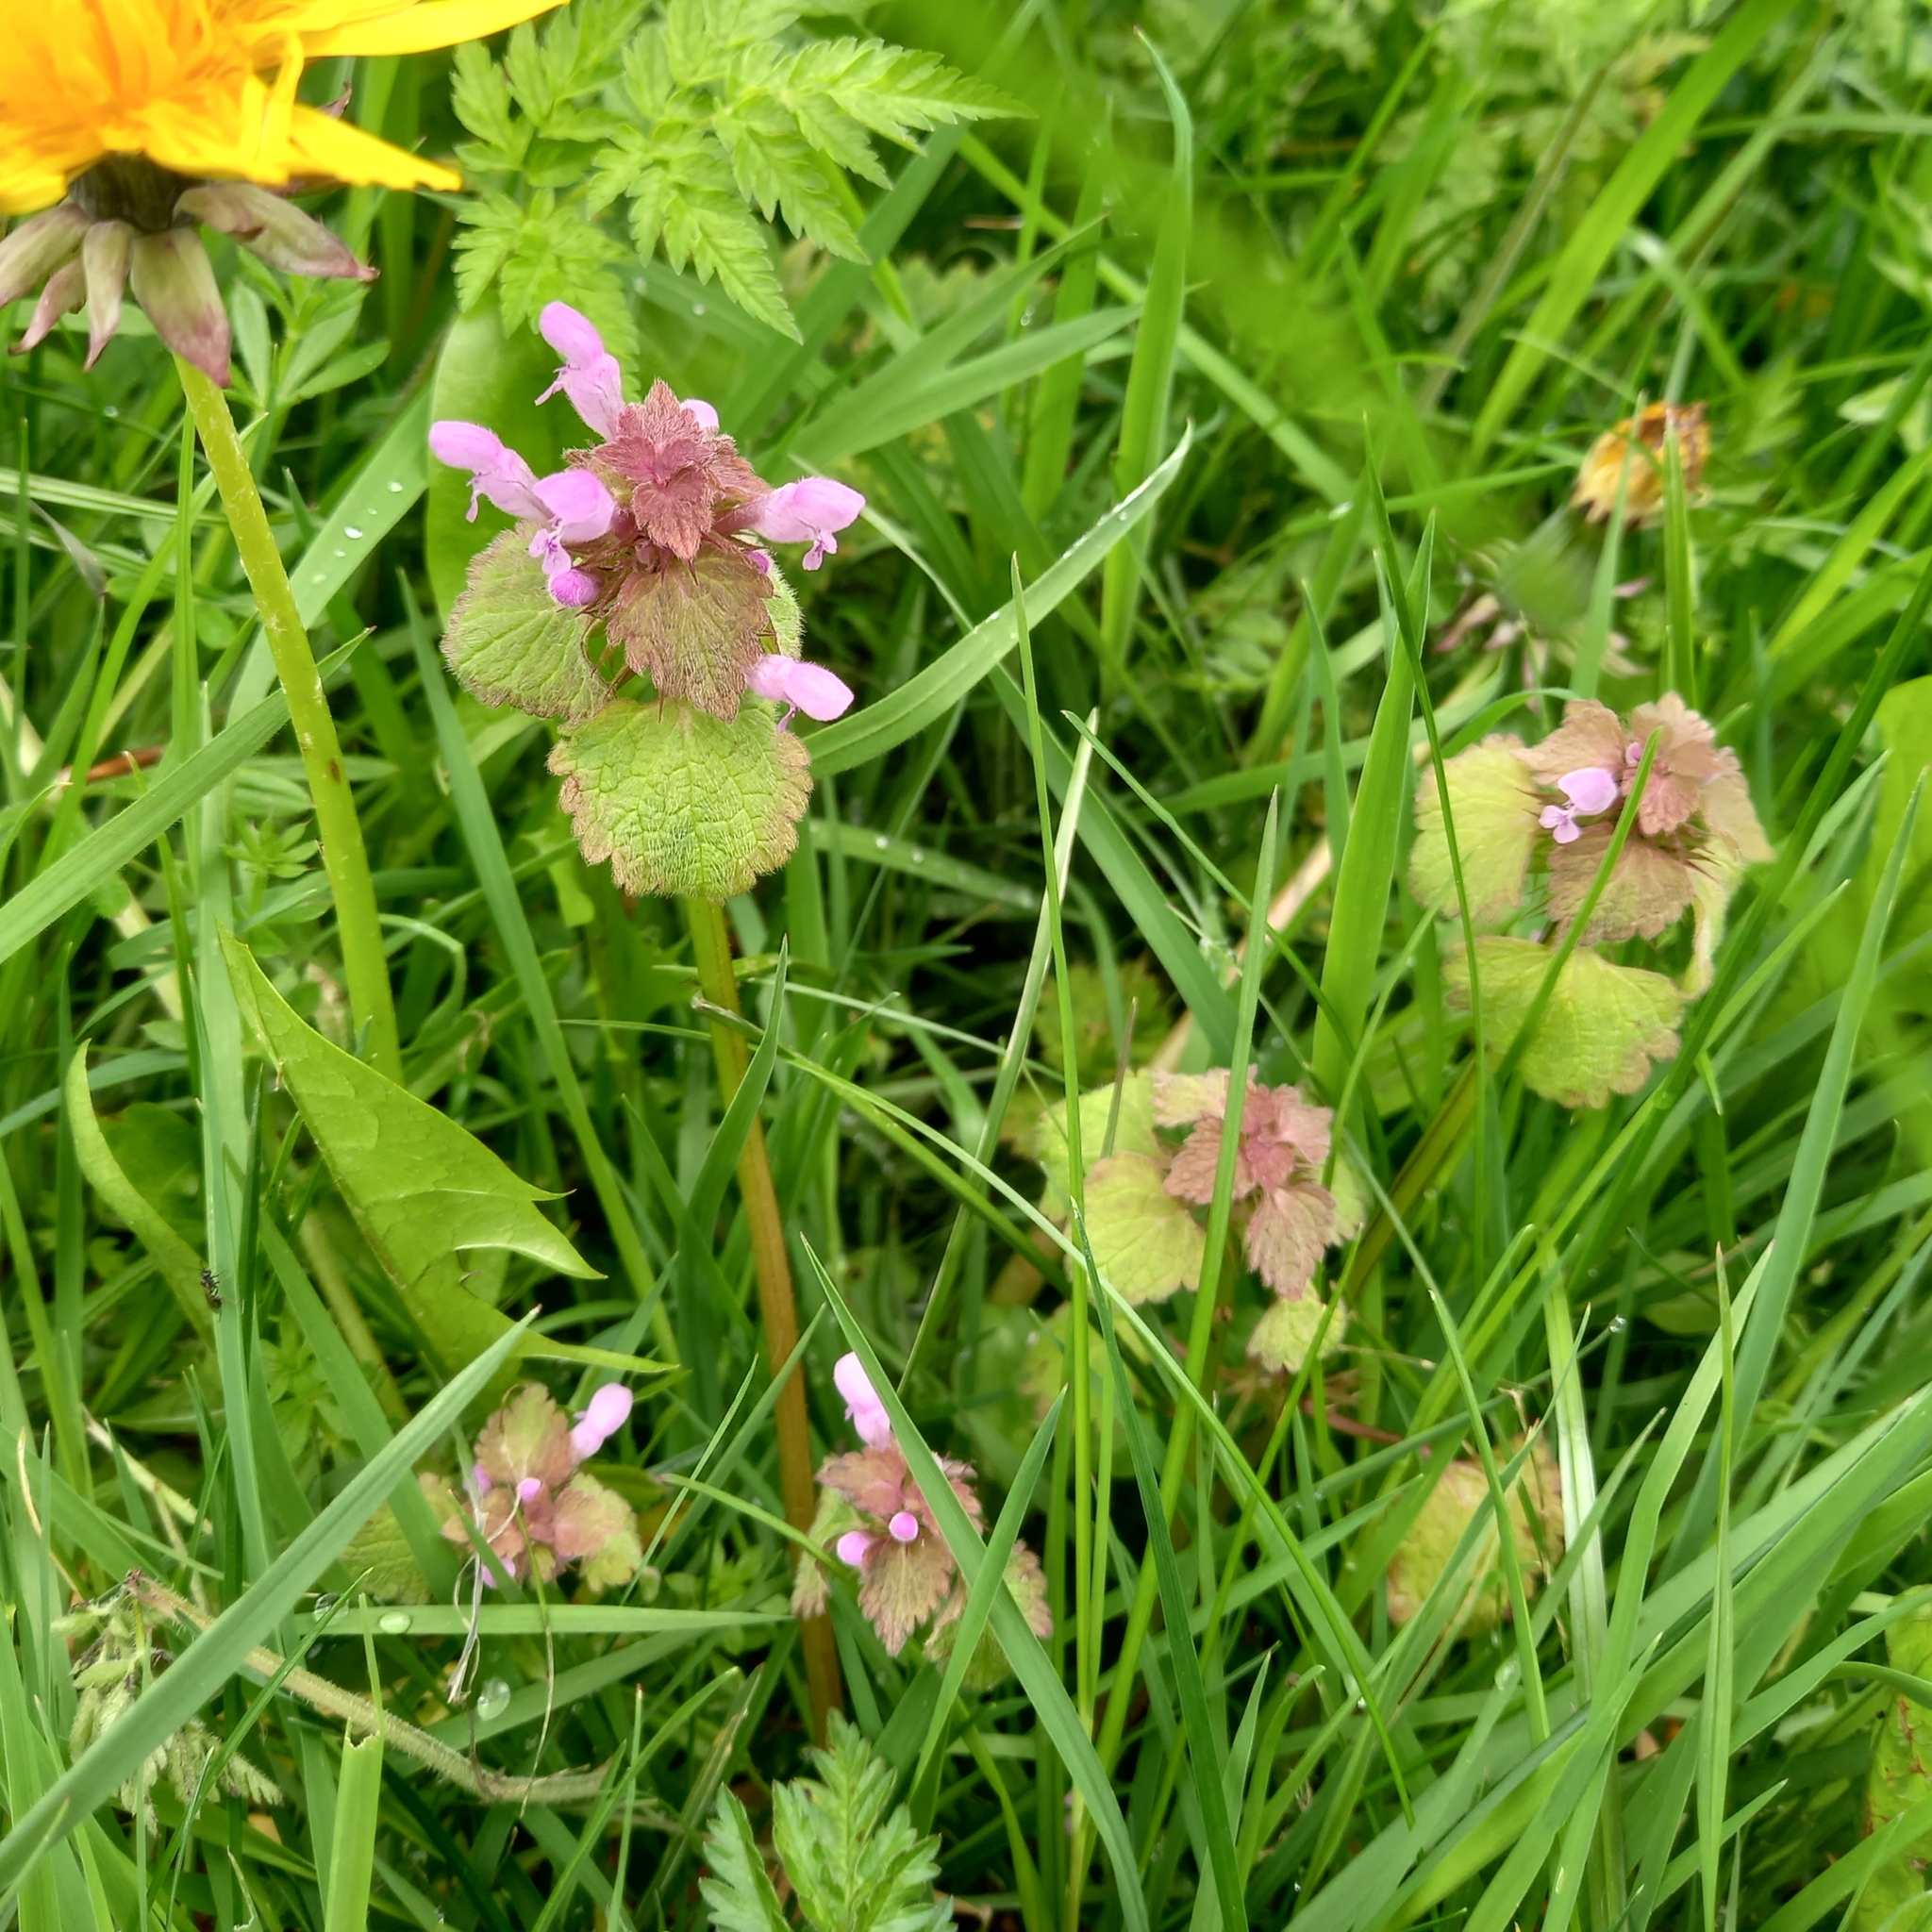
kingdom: Plantae
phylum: Tracheophyta
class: Magnoliopsida
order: Lamiales
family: Lamiaceae
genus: Lamium
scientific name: Lamium purpureum
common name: Red dead-nettle
